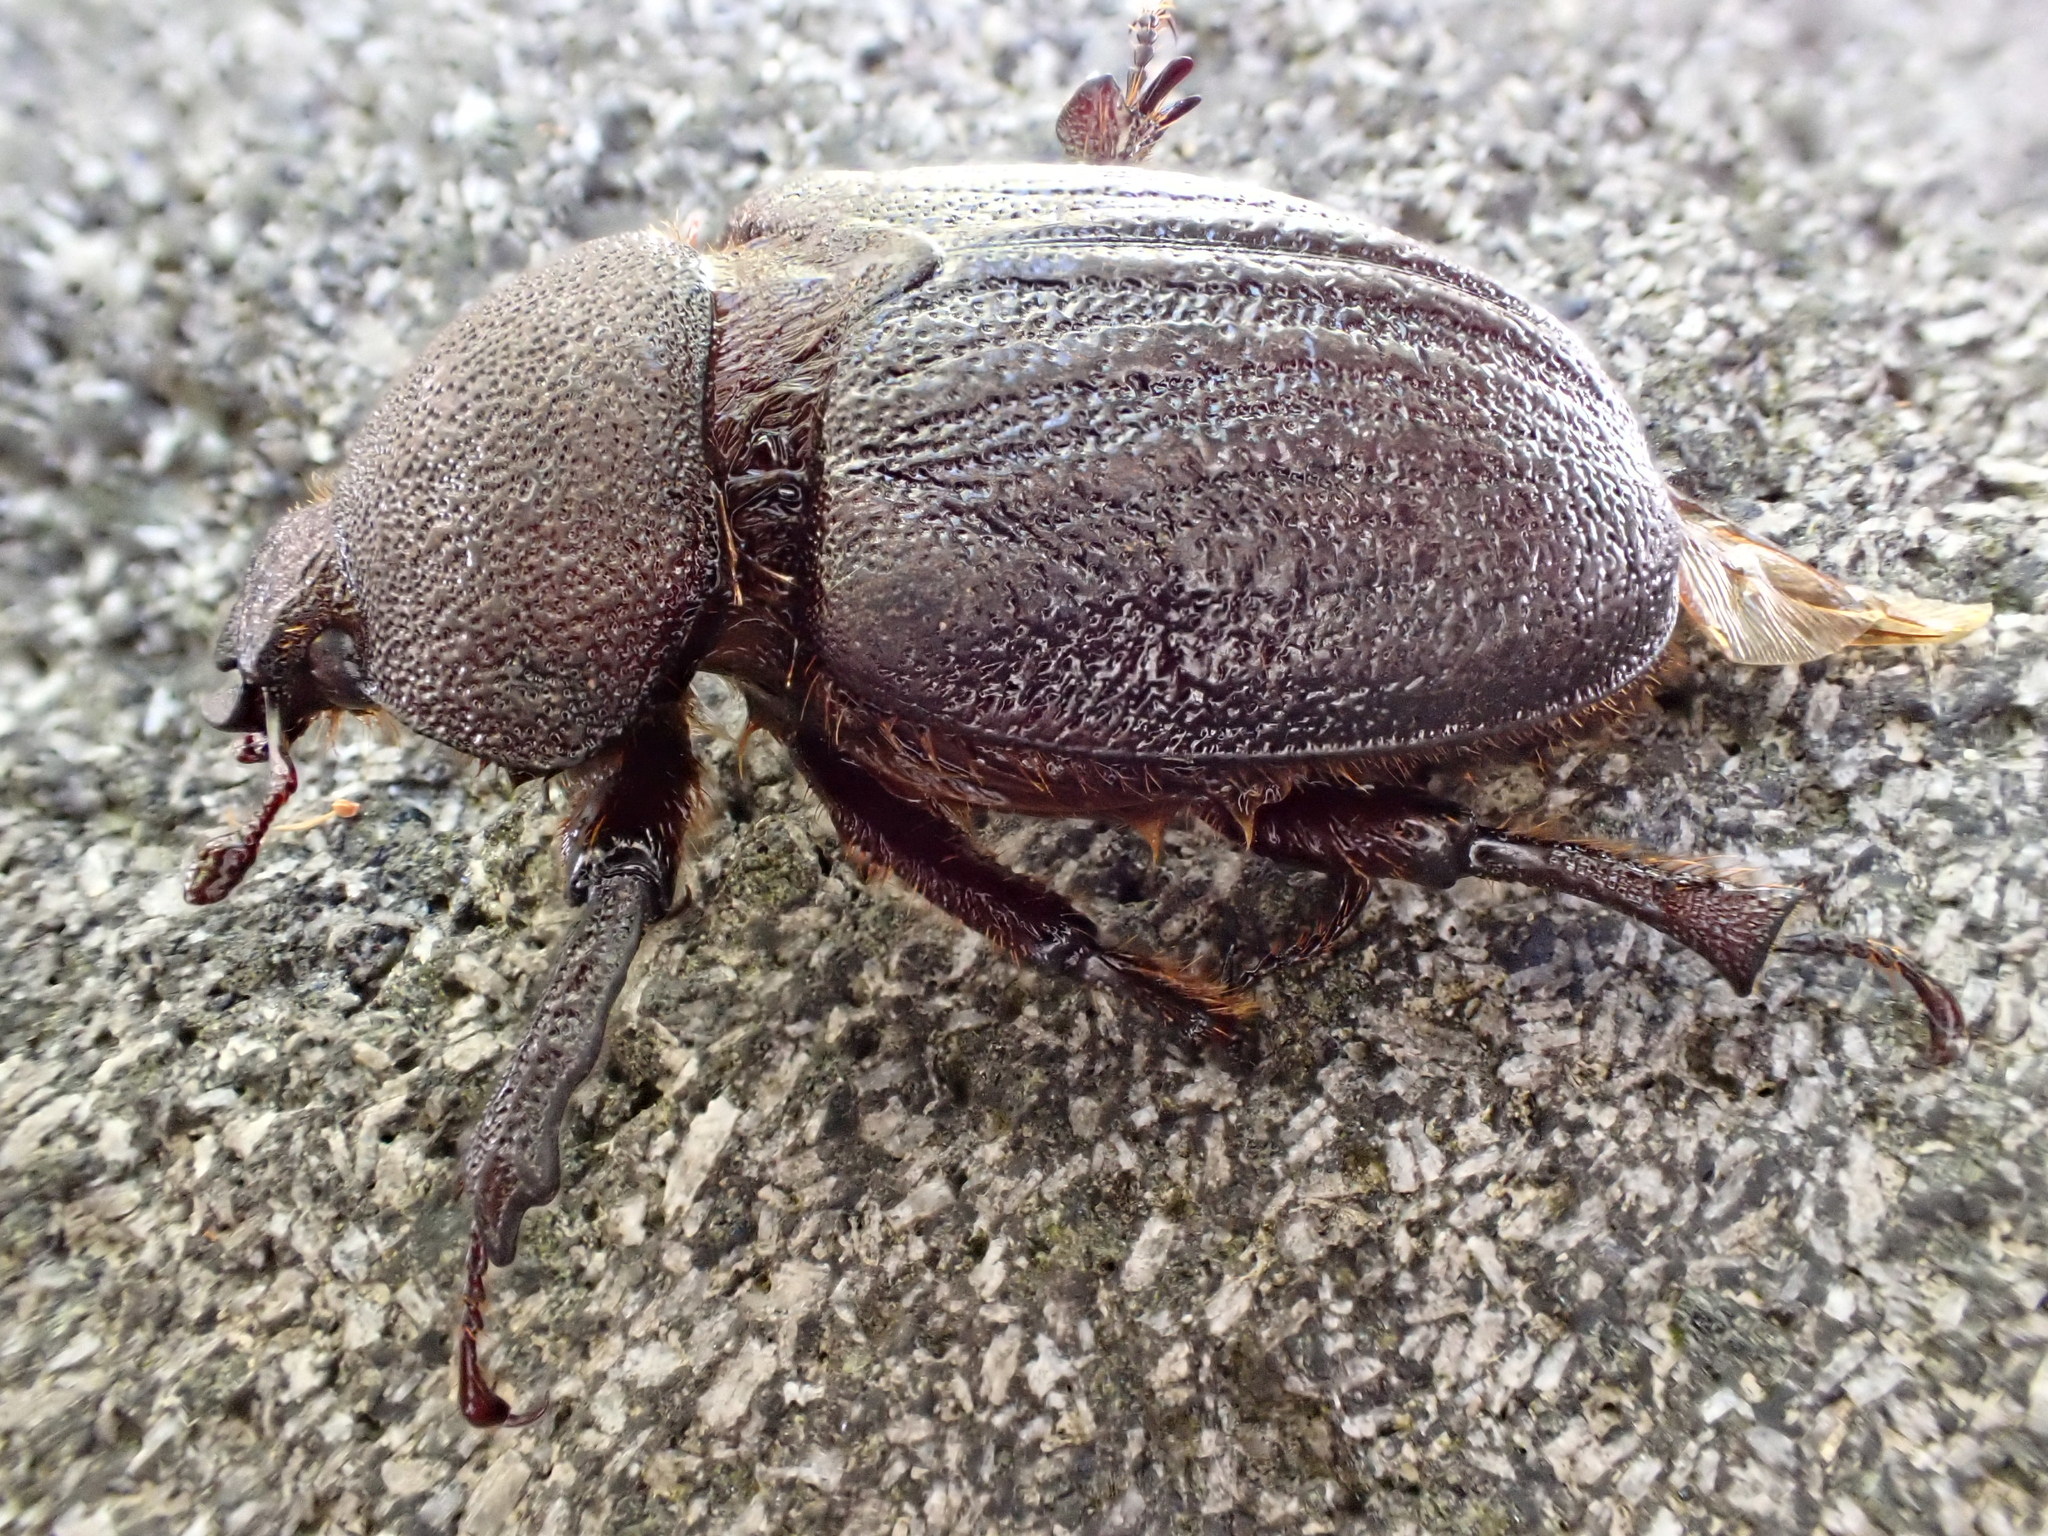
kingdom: Animalia
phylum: Arthropoda
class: Insecta
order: Coleoptera
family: Lucanidae
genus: Dendroblax
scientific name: Dendroblax earlii
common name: Earl's stag beetle
